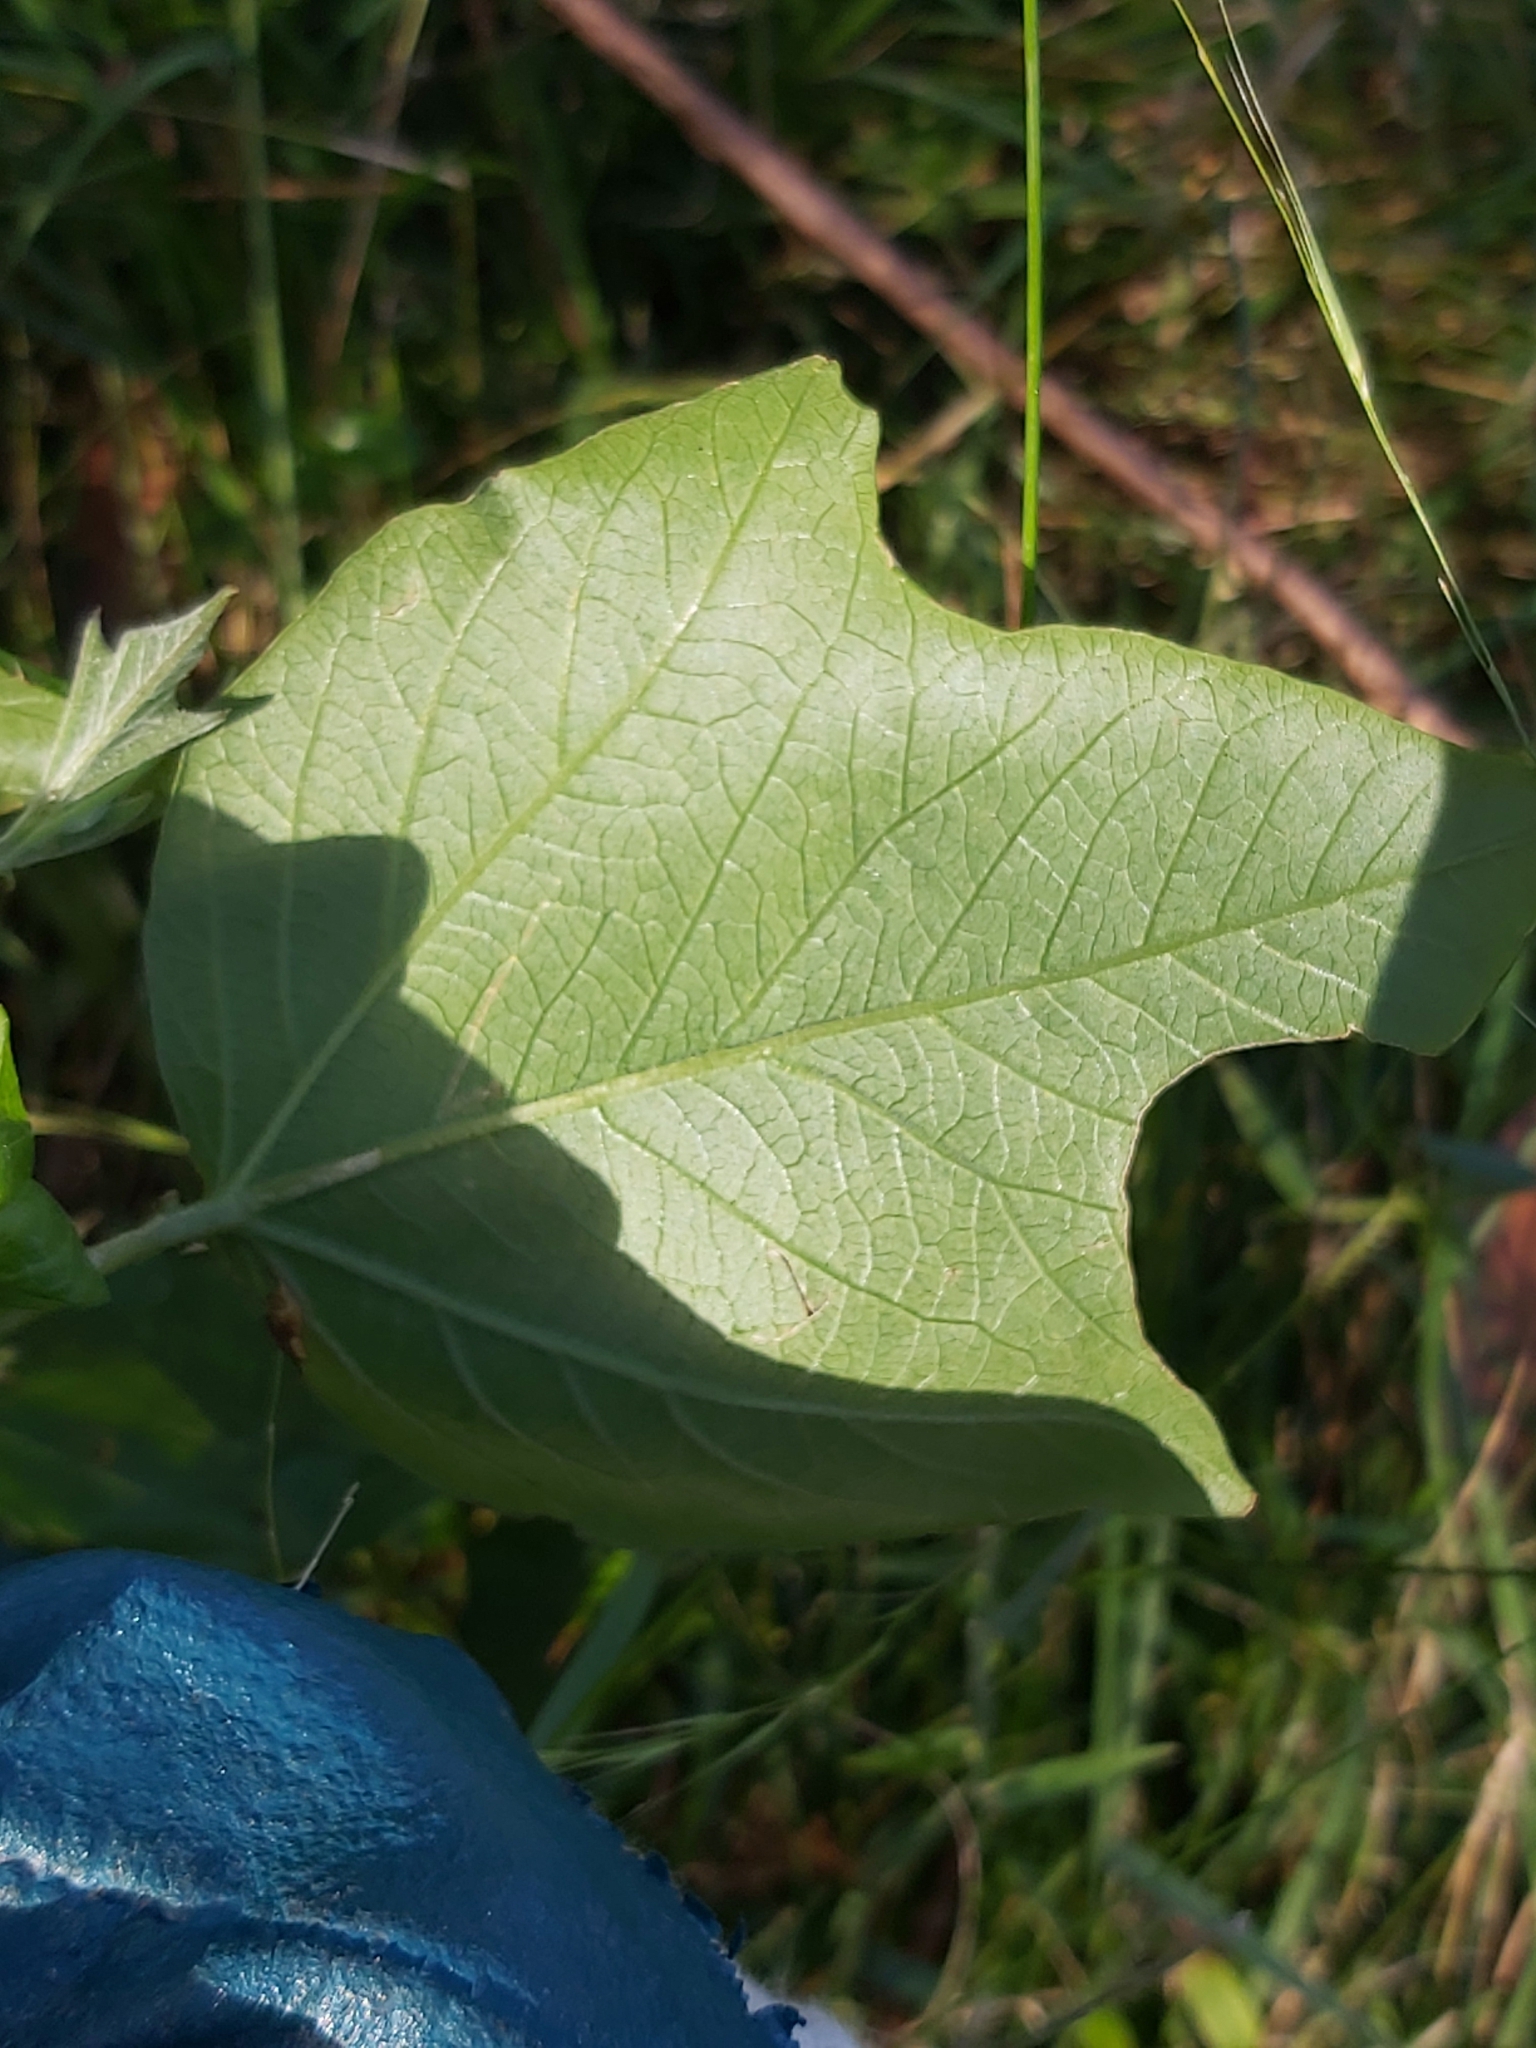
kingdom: Plantae
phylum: Tracheophyta
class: Magnoliopsida
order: Malpighiales
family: Passifloraceae
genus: Passiflora
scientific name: Passiflora herbertiana
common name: Yellow passionflower
